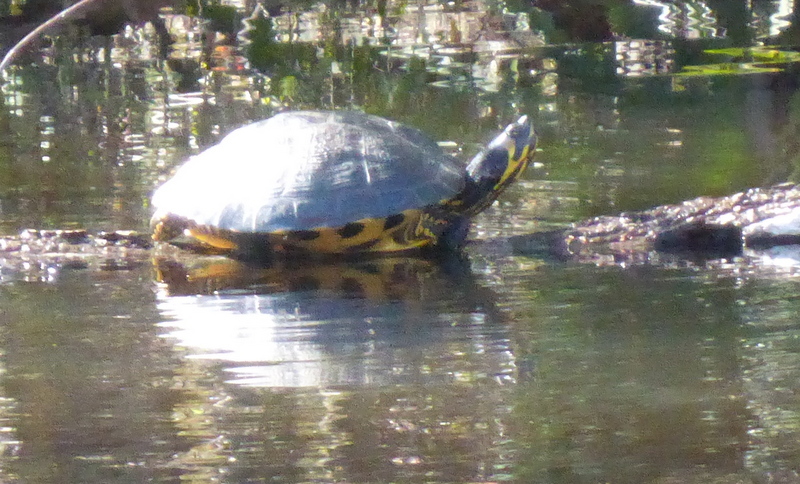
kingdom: Animalia
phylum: Chordata
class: Testudines
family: Emydidae
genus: Trachemys
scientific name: Trachemys scripta
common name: Slider
